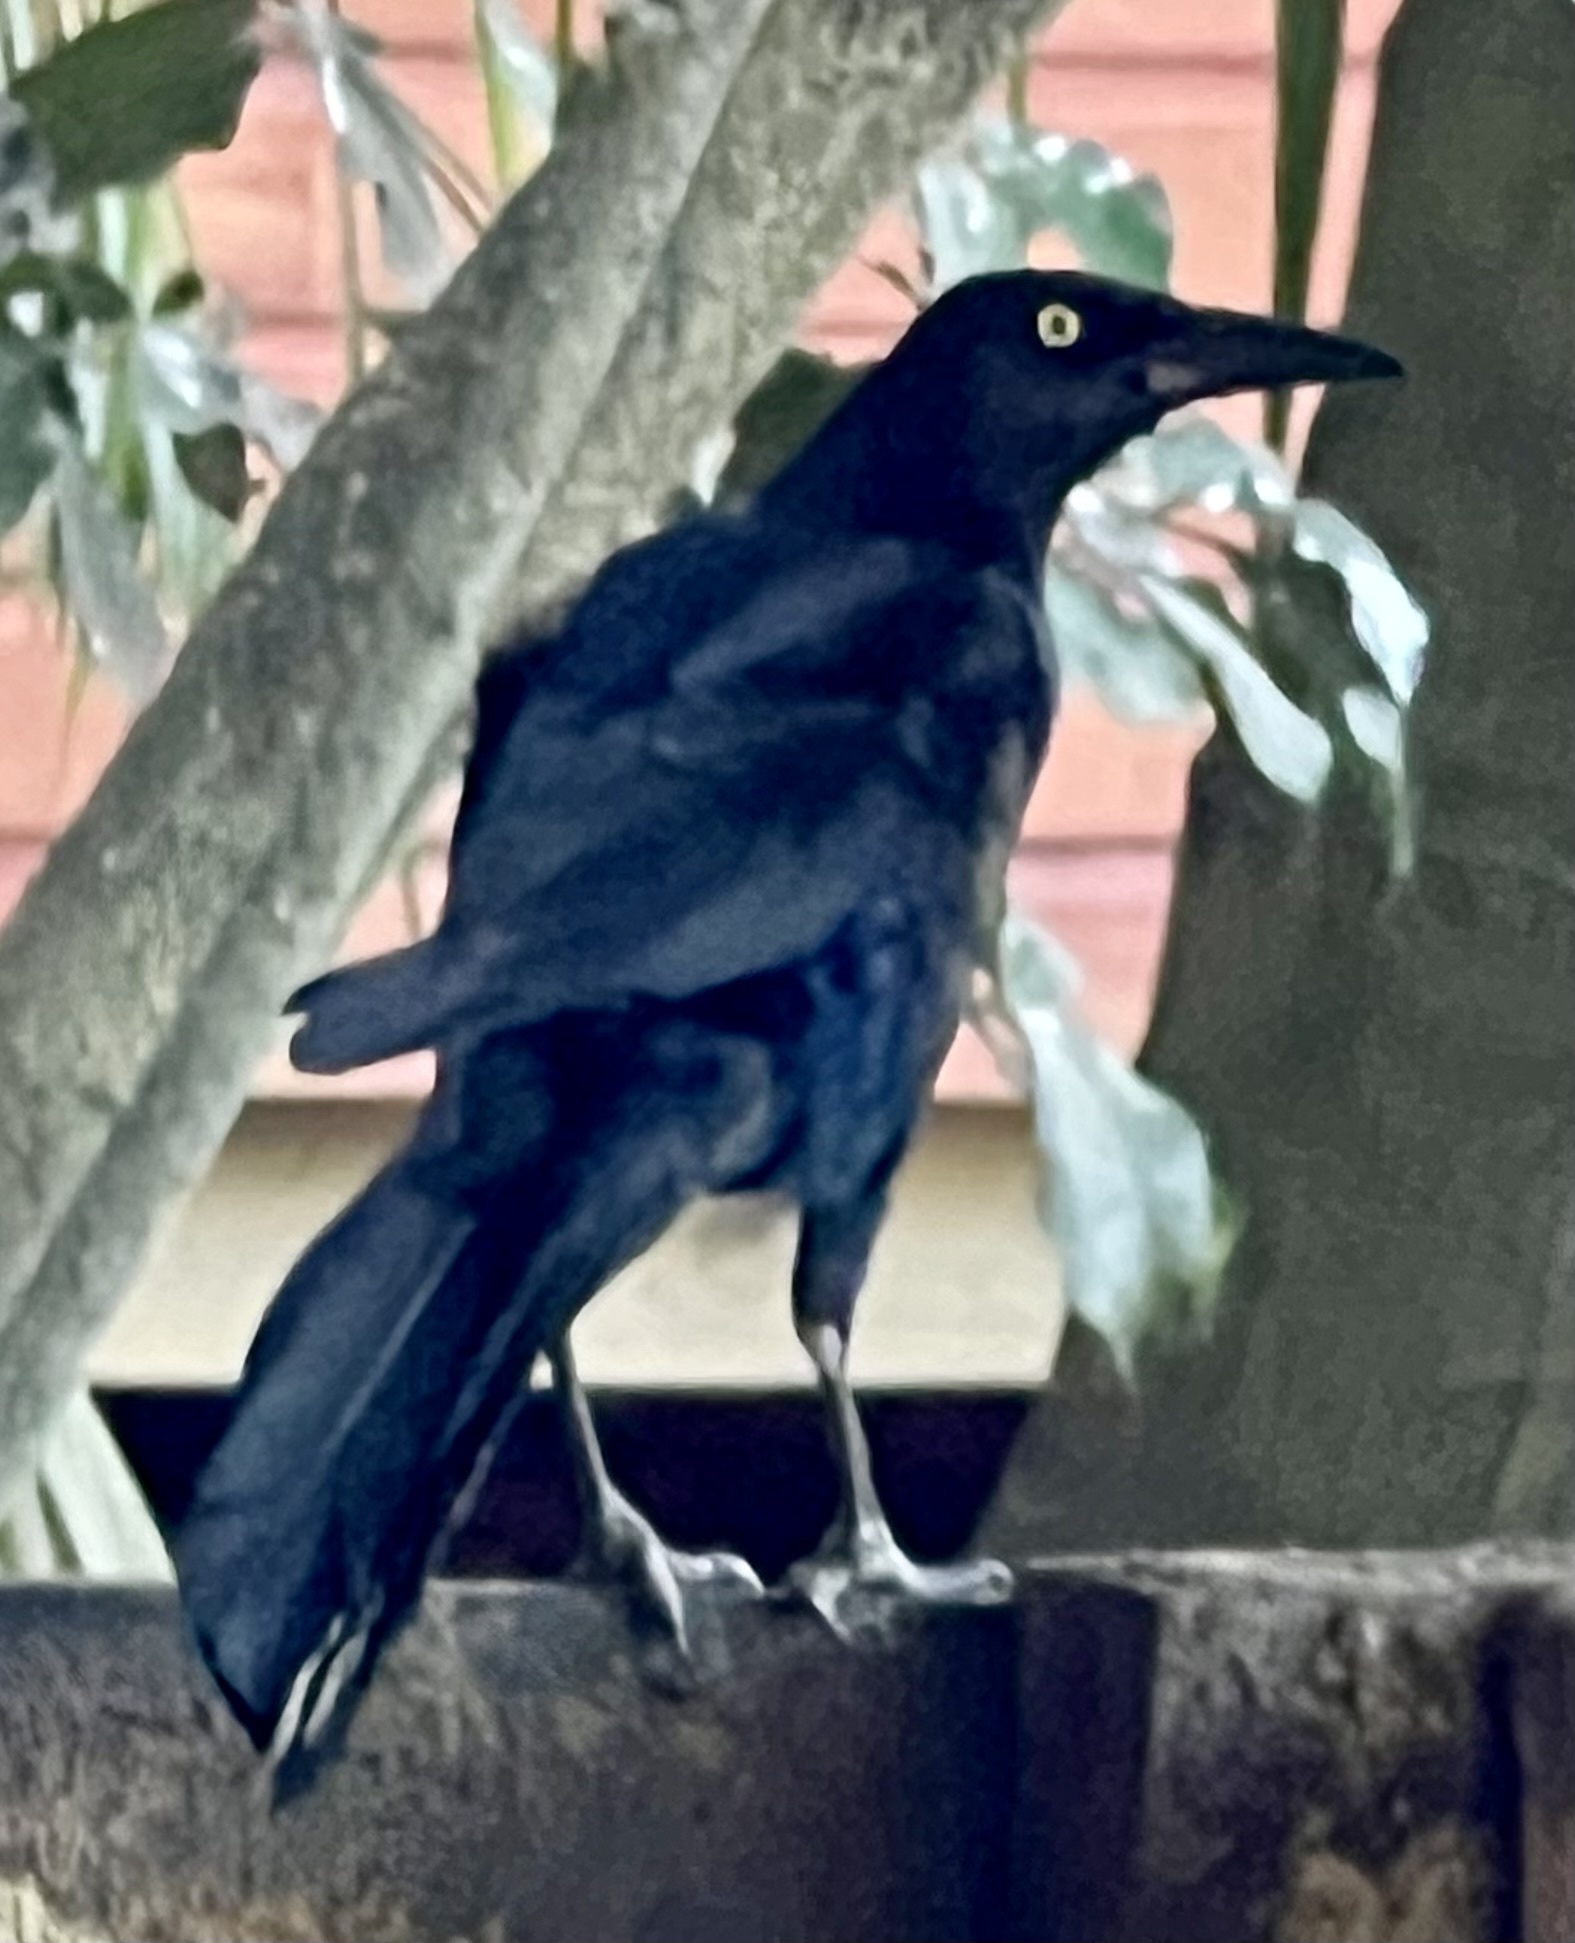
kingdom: Animalia
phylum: Chordata
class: Aves
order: Passeriformes
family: Icteridae
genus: Quiscalus
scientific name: Quiscalus mexicanus
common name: Great-tailed grackle
